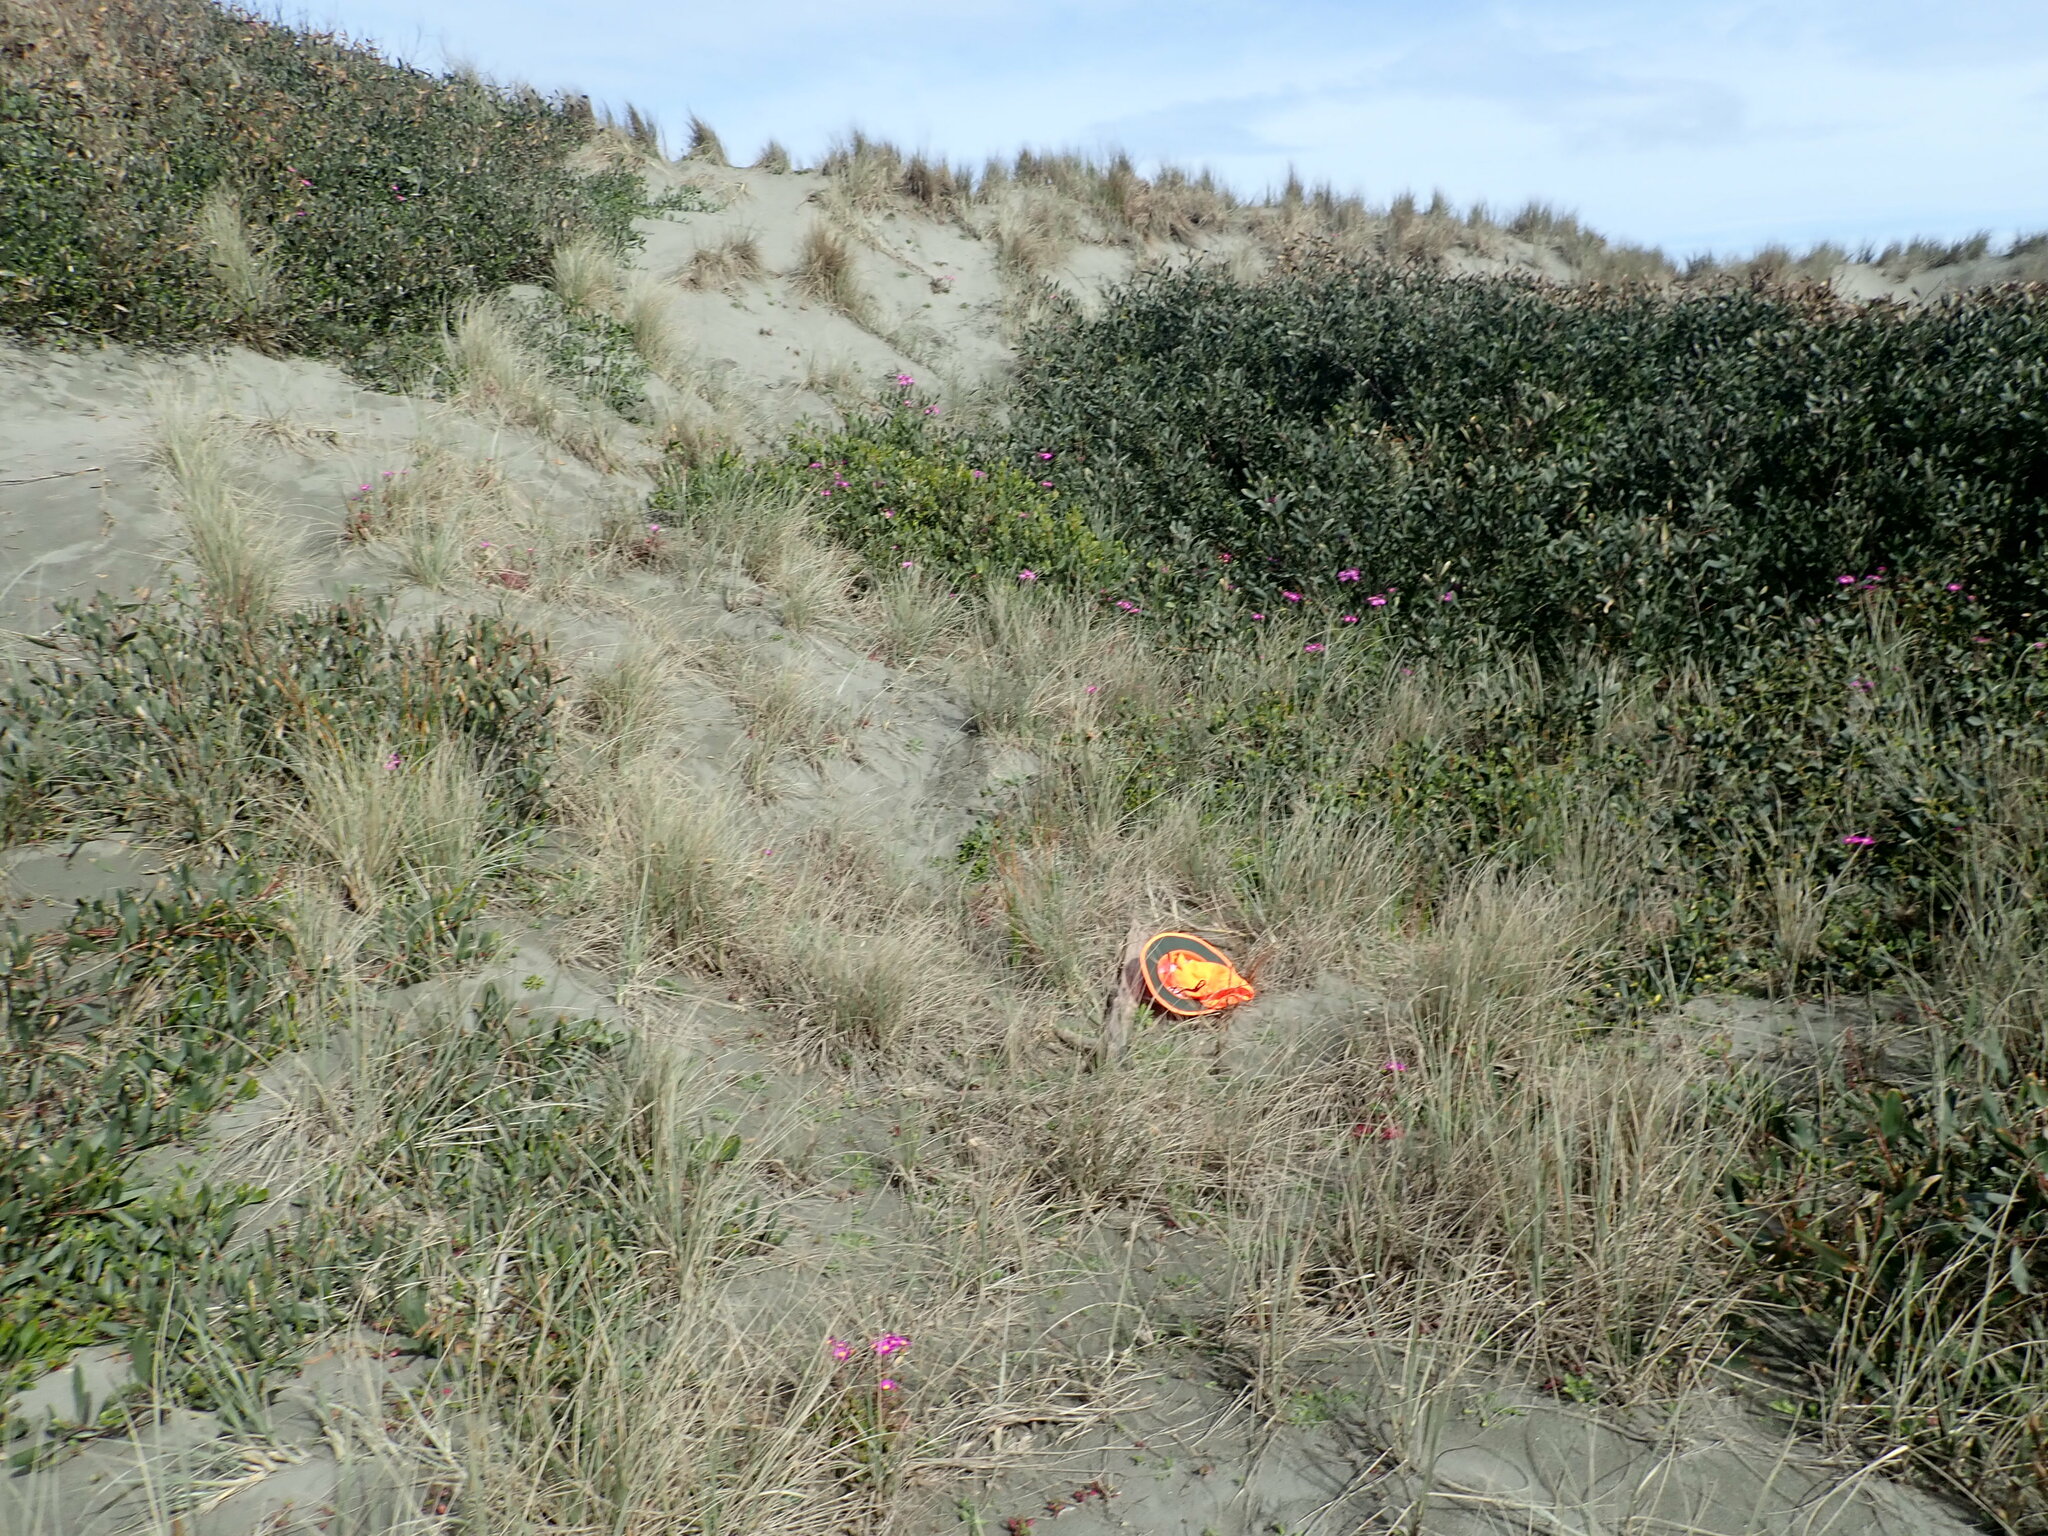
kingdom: Animalia
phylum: Arthropoda
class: Malacostraca
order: Isopoda
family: Porcellionidae
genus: Porcellio
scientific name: Porcellio scaber
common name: Common rough woodlouse
